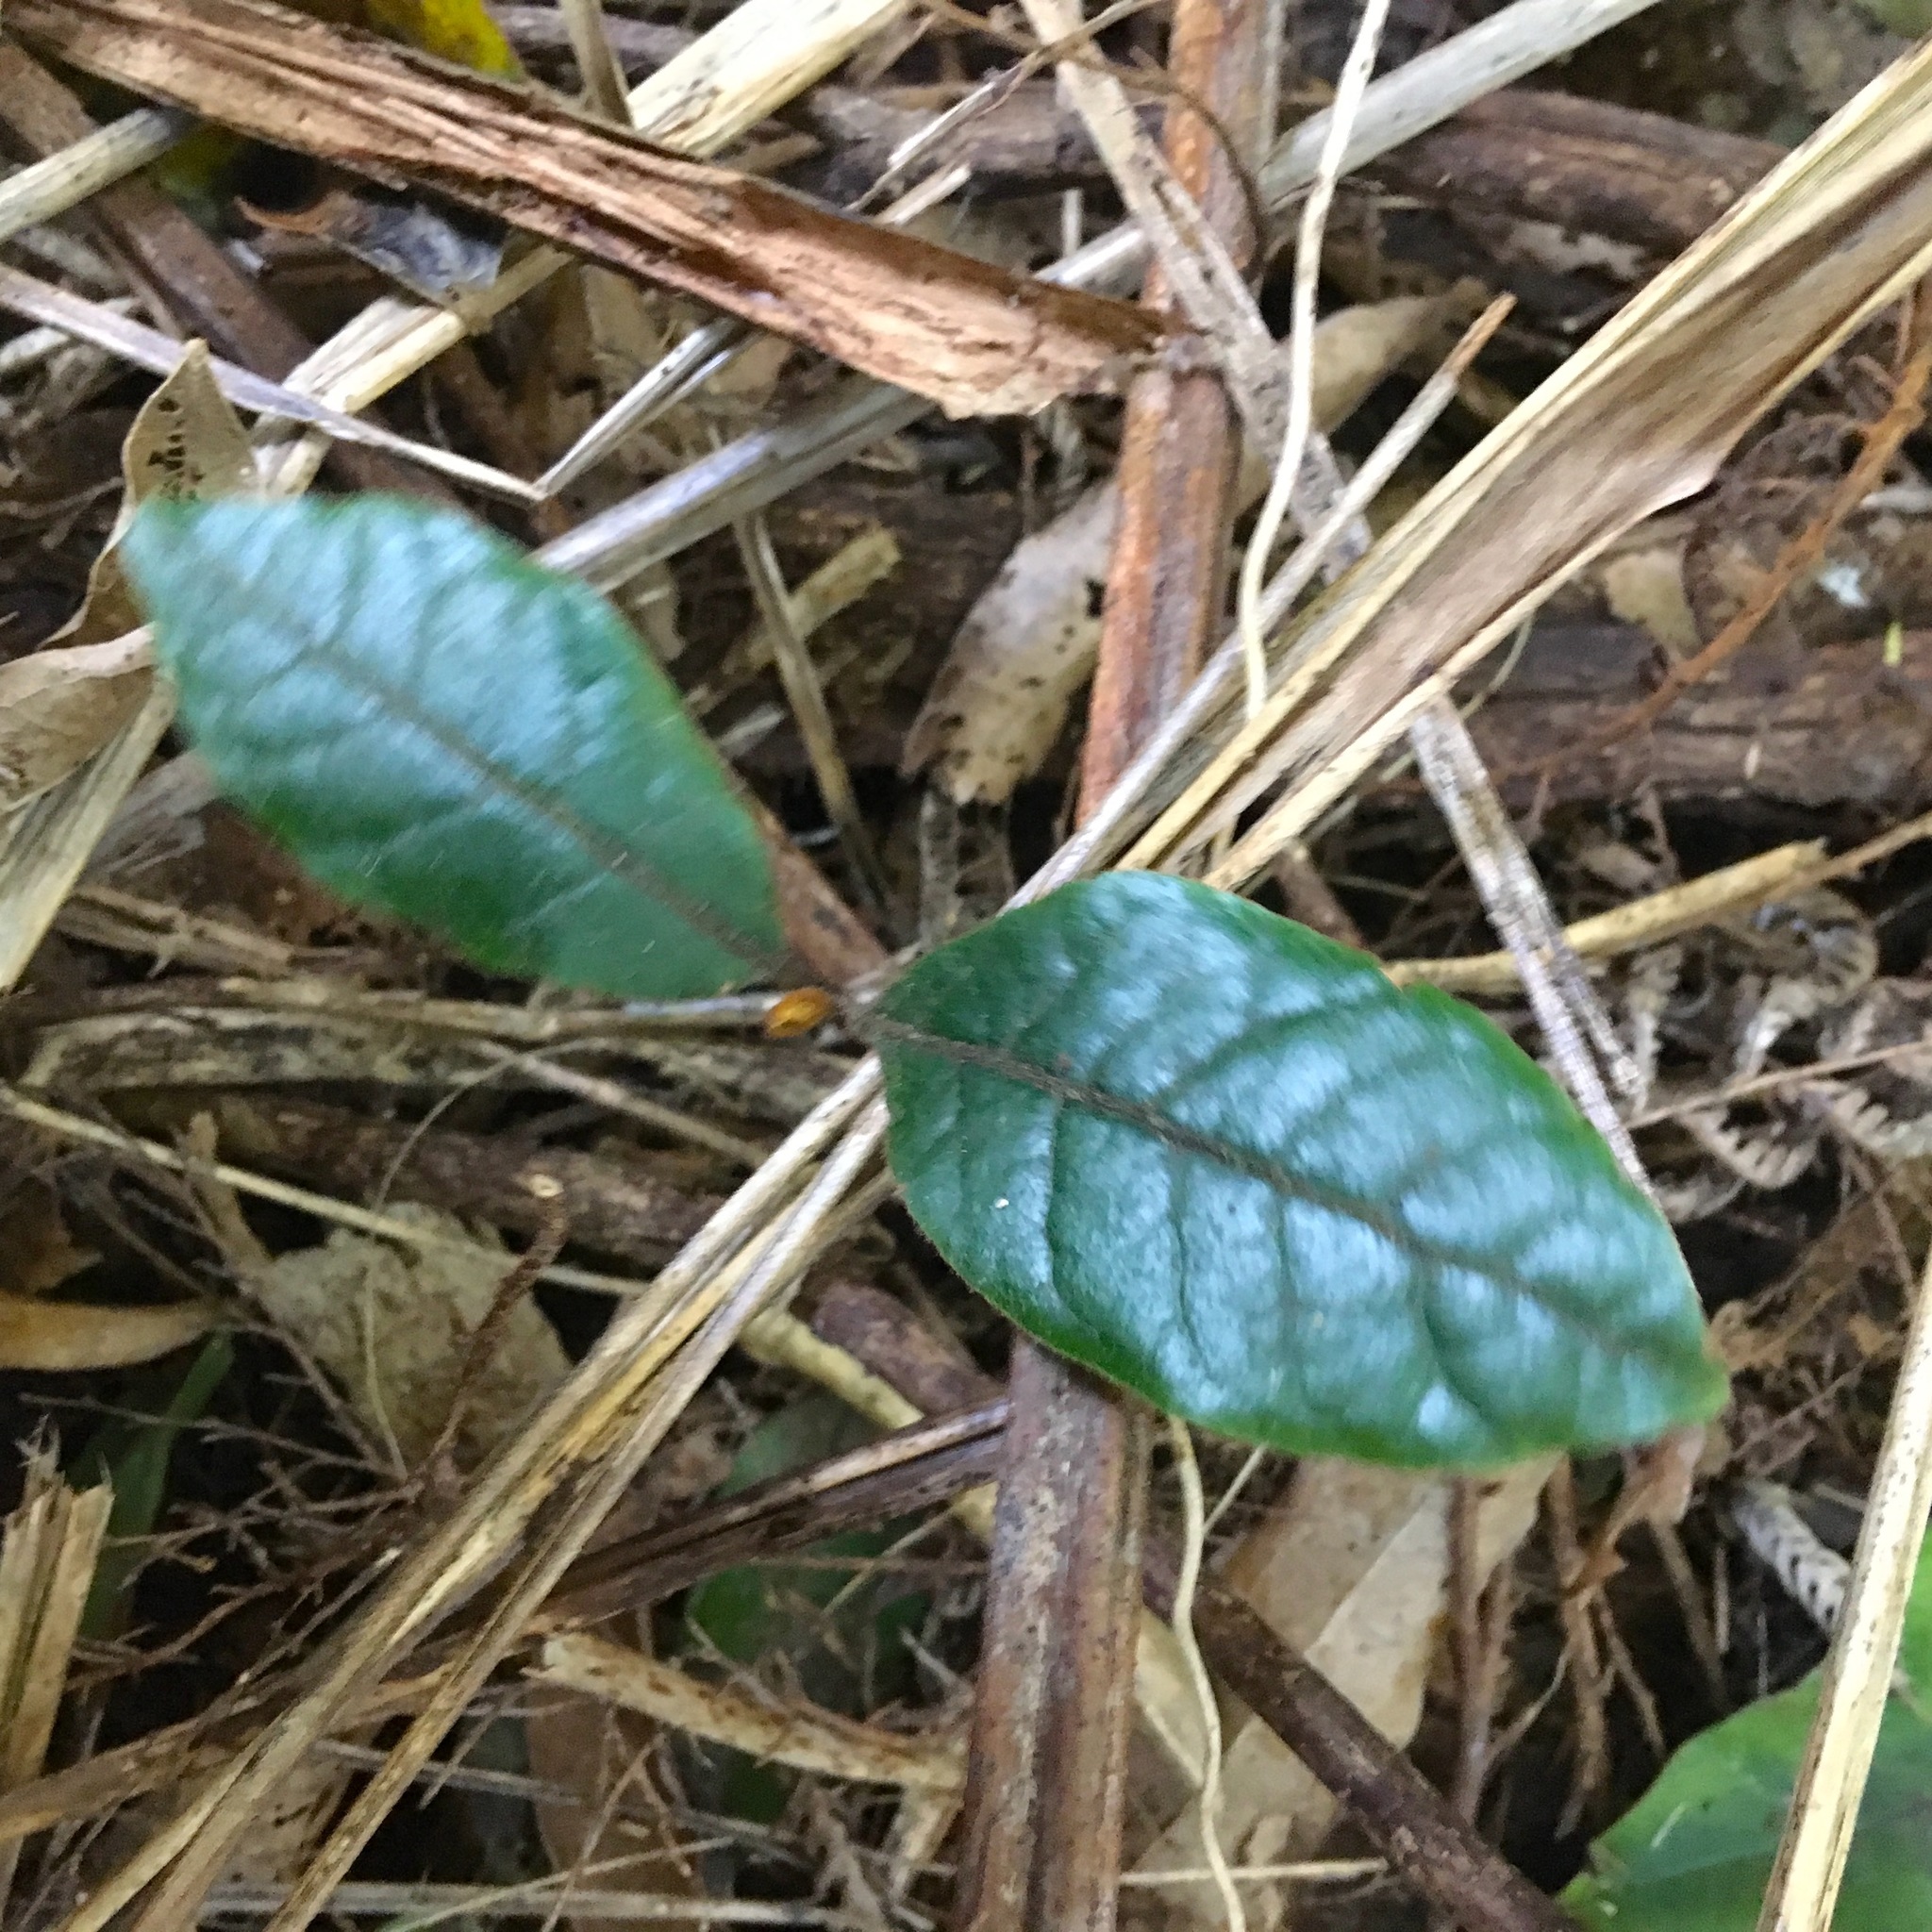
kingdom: Plantae
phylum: Tracheophyta
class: Magnoliopsida
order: Laurales
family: Lauraceae
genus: Beilschmiedia
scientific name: Beilschmiedia tarairi
